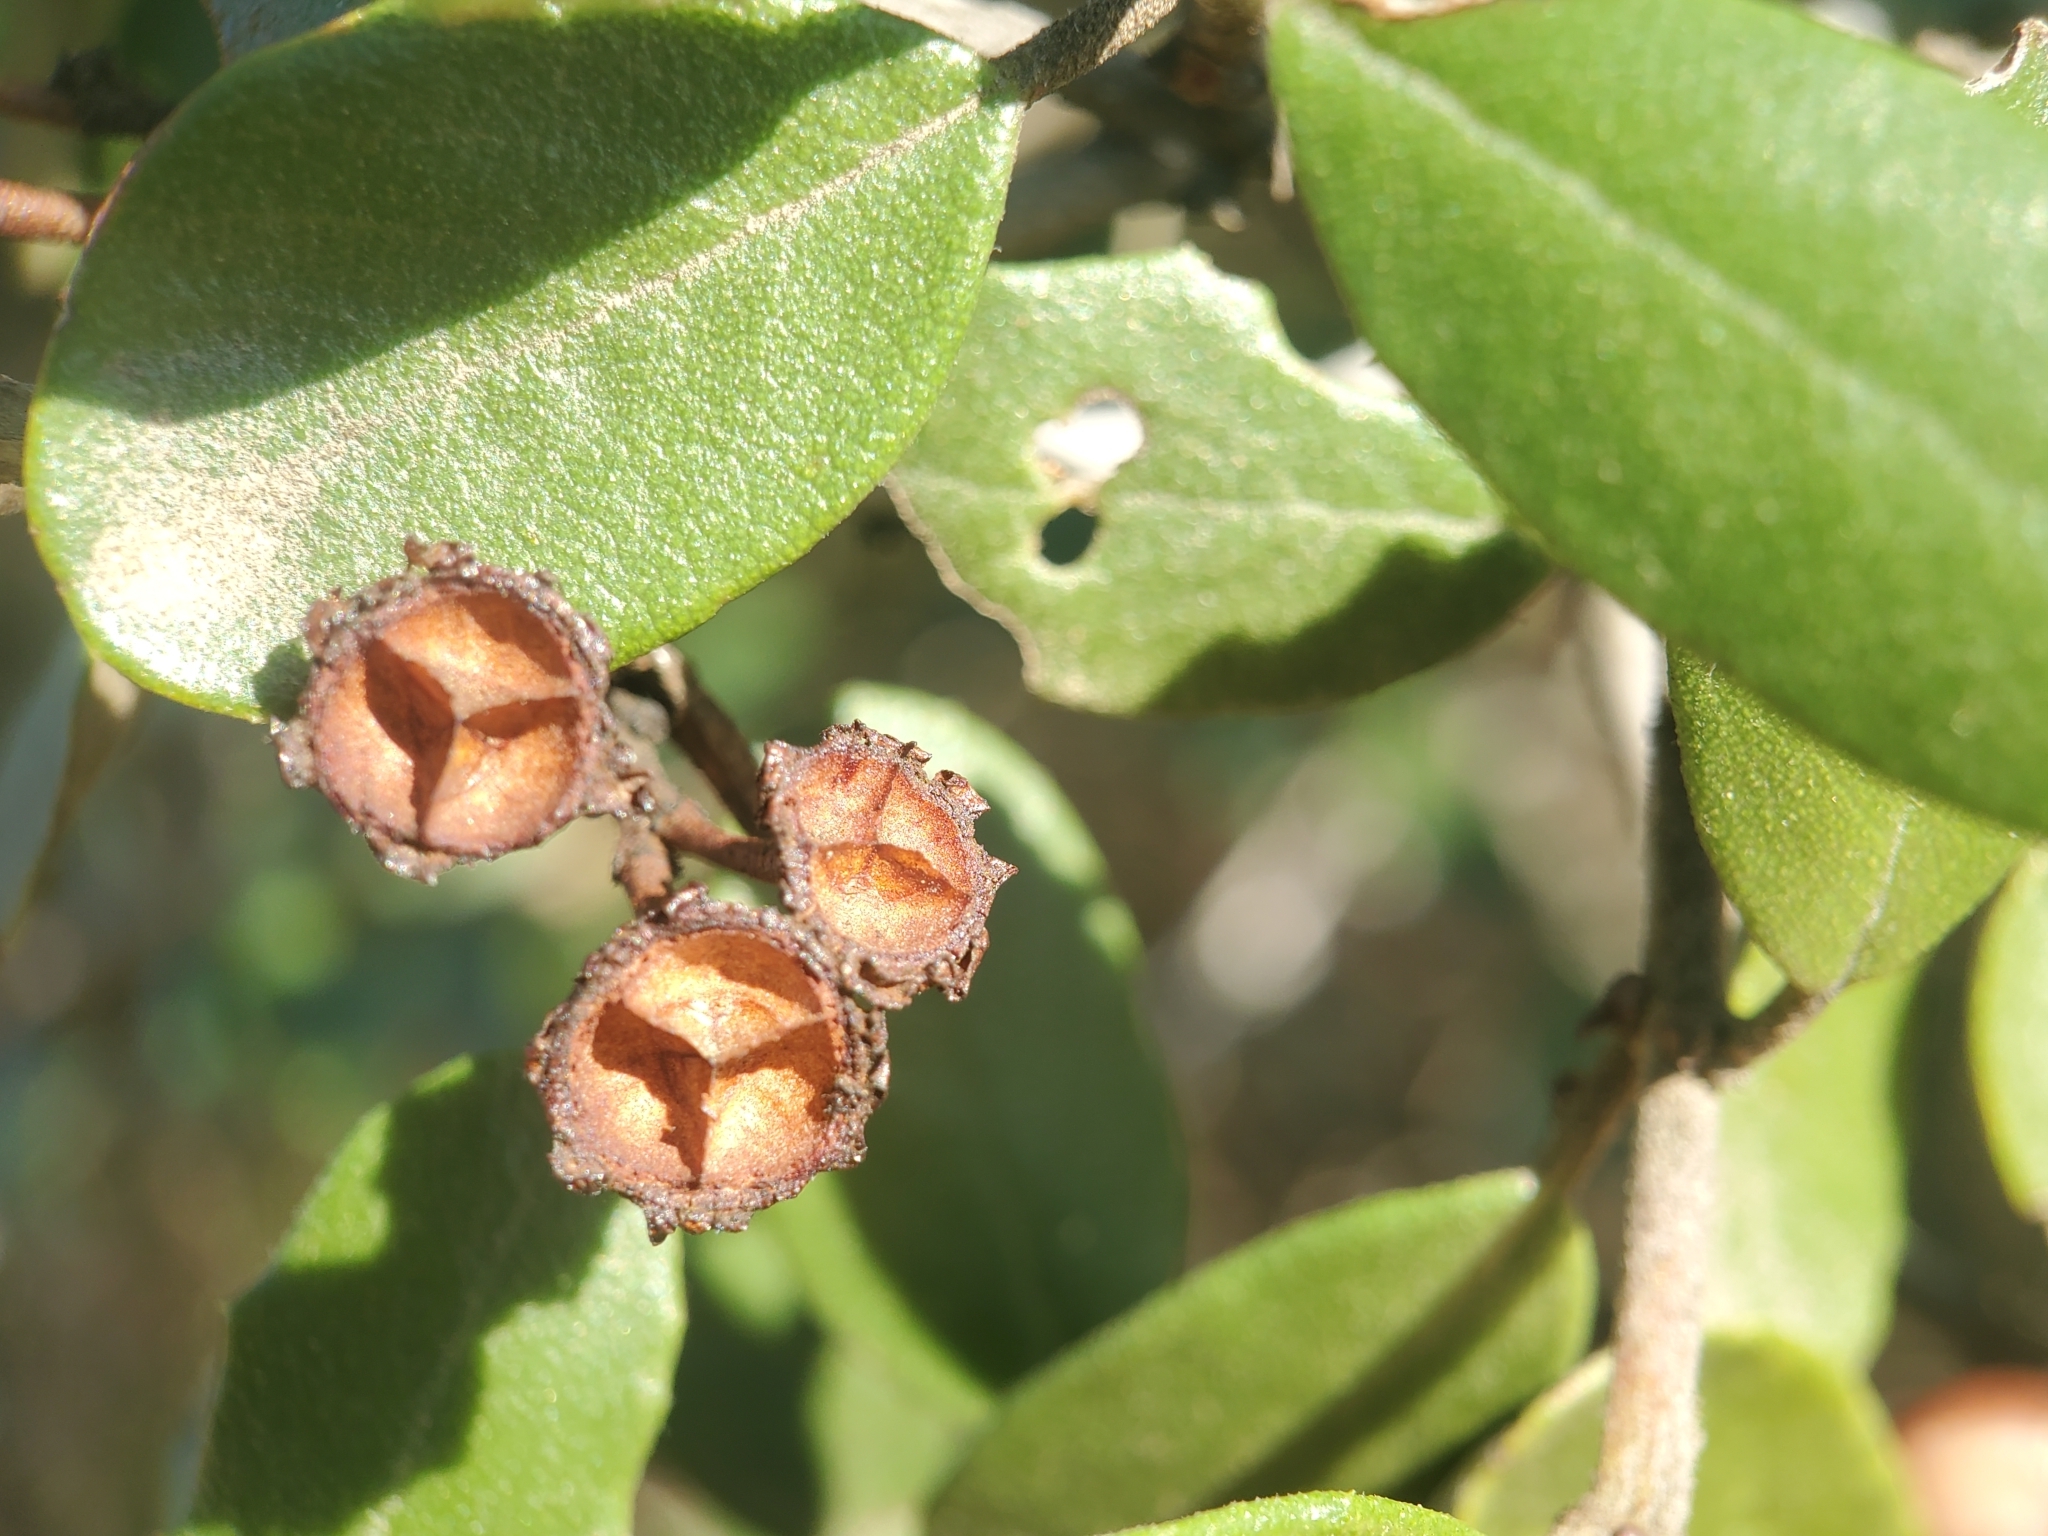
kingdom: Plantae
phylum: Tracheophyta
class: Magnoliopsida
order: Rosales
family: Rhamnaceae
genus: Ceanothus
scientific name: Ceanothus crassifolius
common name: Hoaryleaf ceanothus
